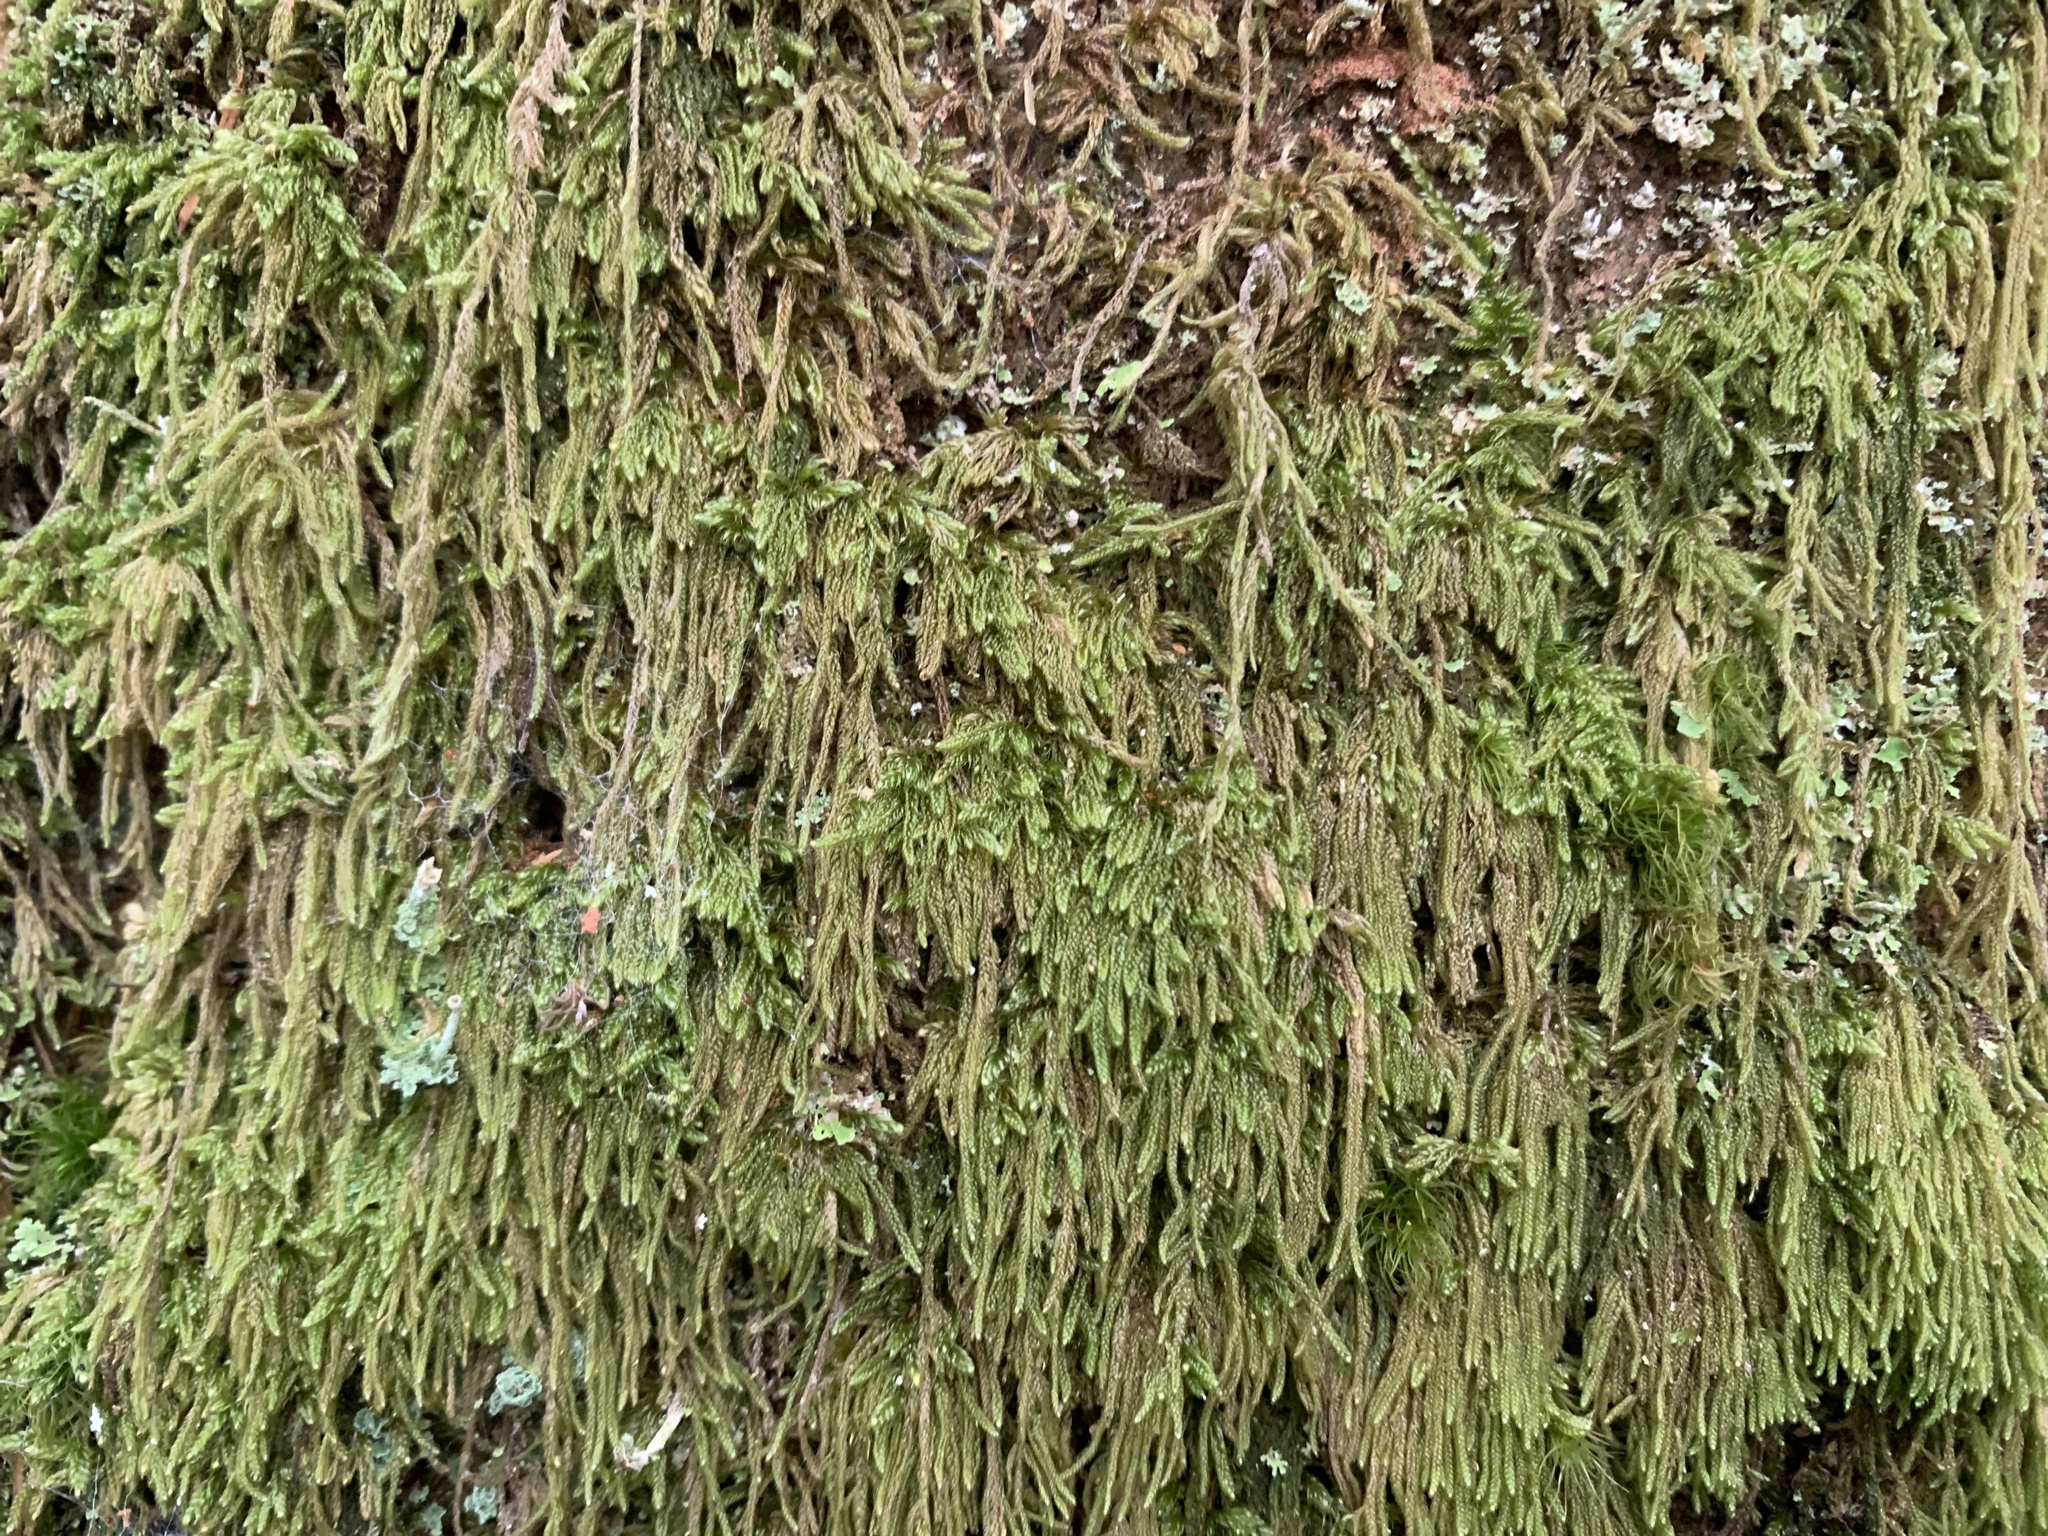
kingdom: Plantae
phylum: Bryophyta
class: Bryopsida
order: Hypnales
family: Pylaisiadelphaceae
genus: Trochophyllohypnum
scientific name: Trochophyllohypnum circinale
